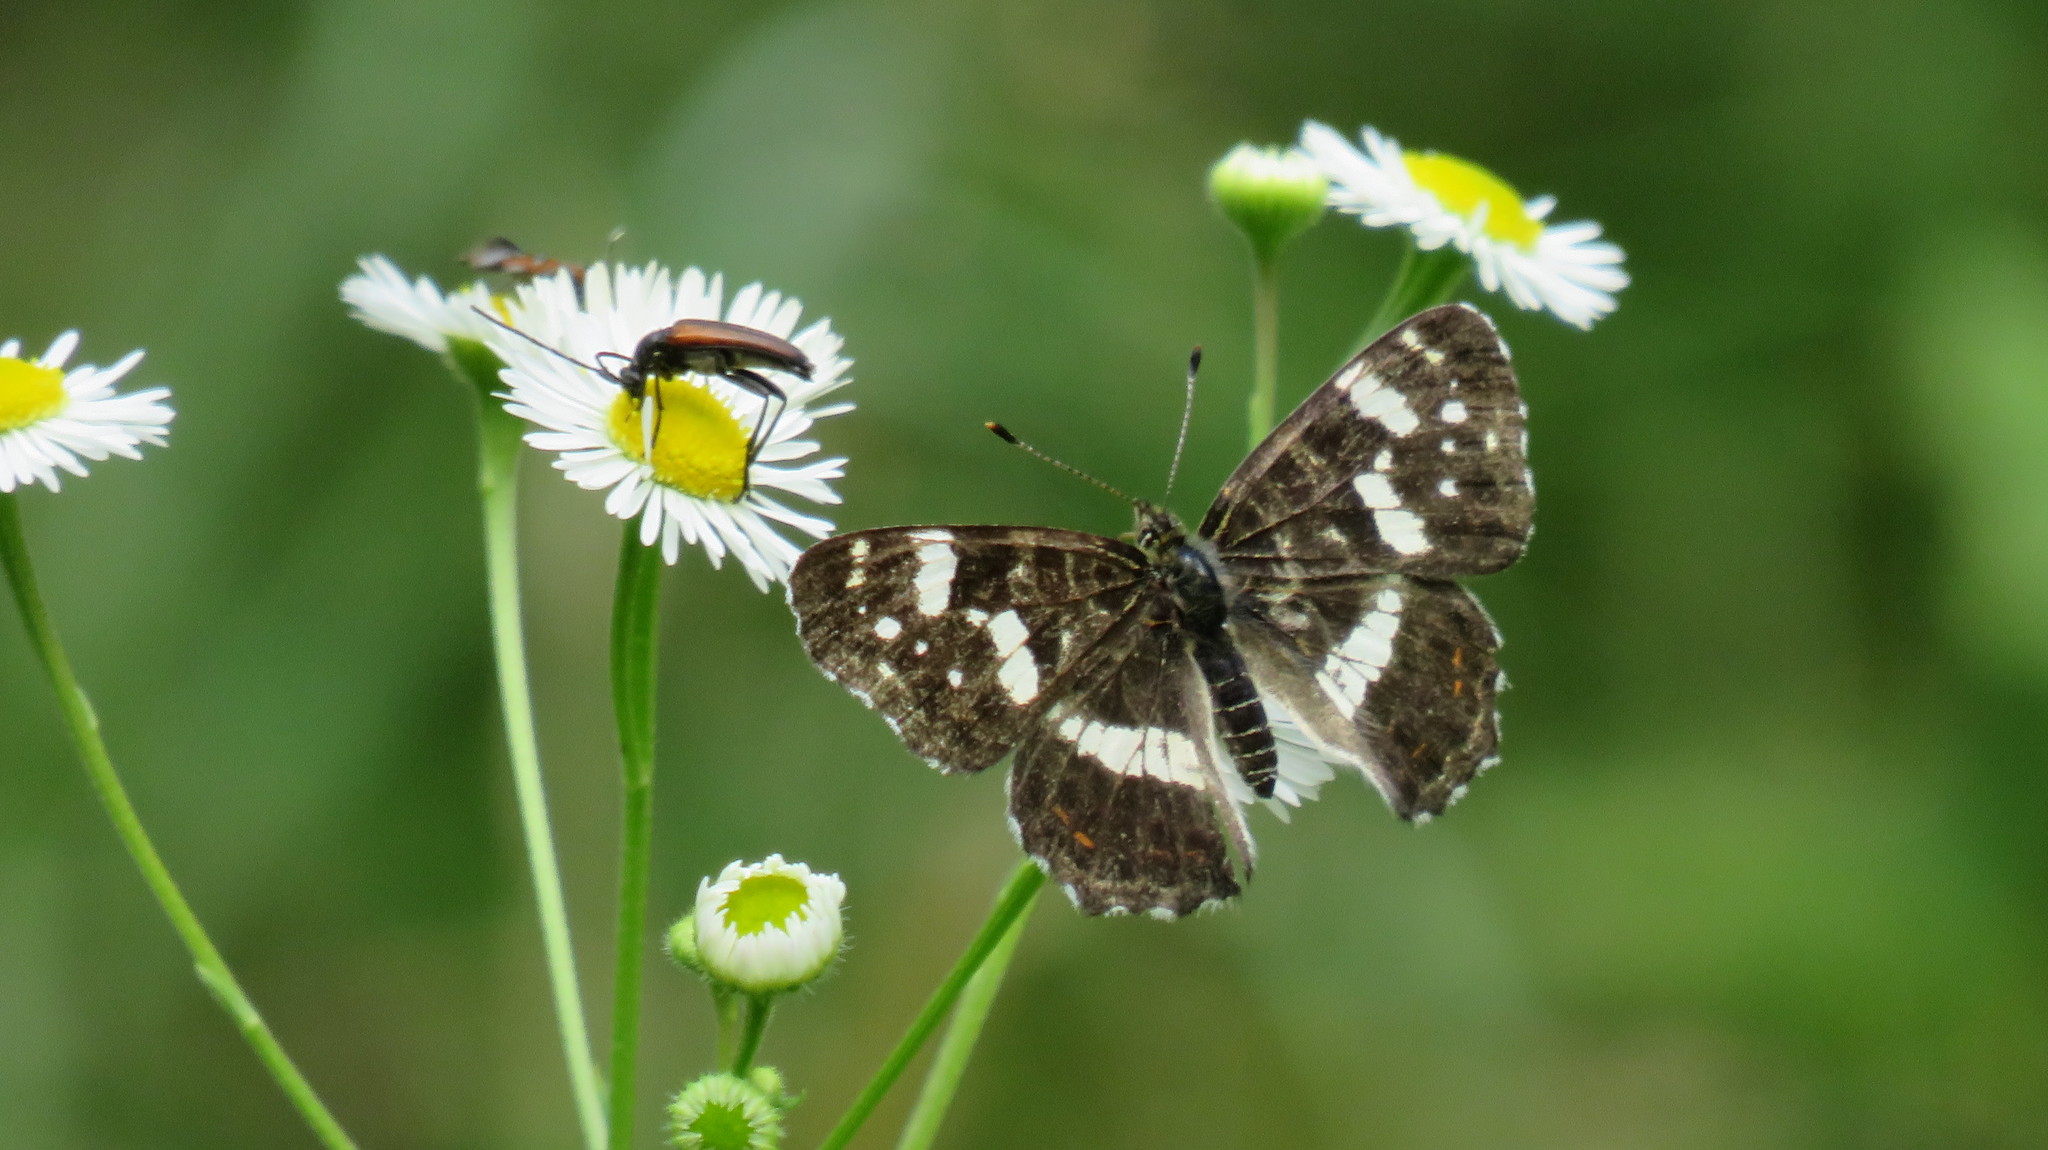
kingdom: Animalia
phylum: Arthropoda
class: Insecta
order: Lepidoptera
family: Nymphalidae
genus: Araschnia
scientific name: Araschnia levana
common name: Map butterfly
